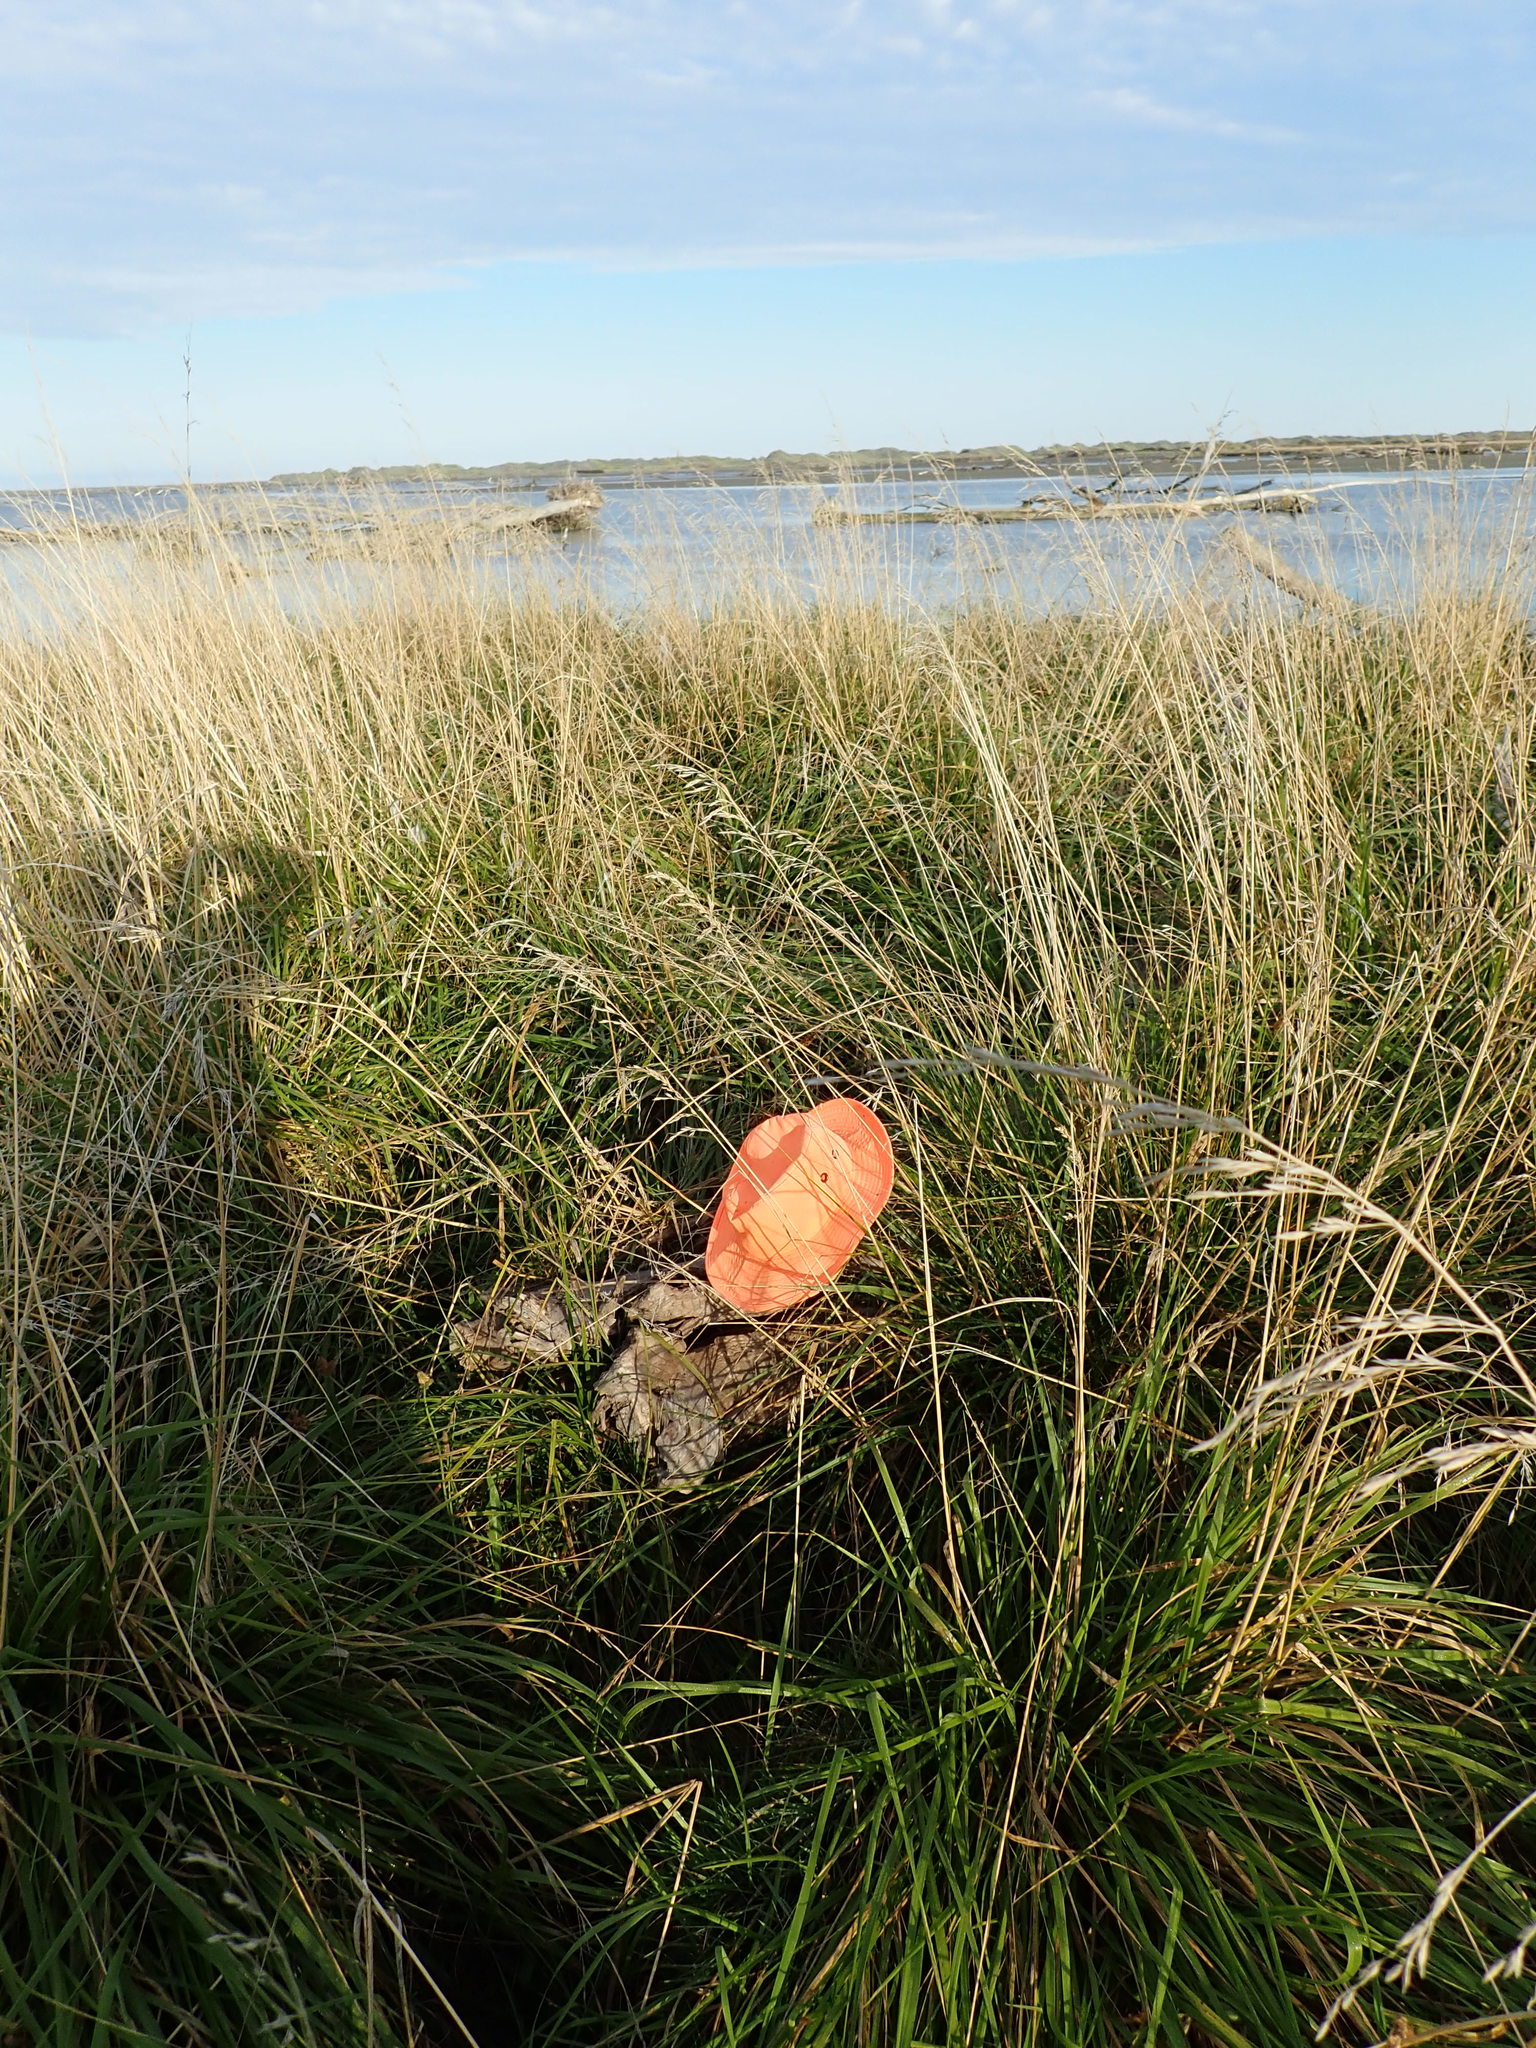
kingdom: Plantae
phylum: Tracheophyta
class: Liliopsida
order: Poales
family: Cyperaceae
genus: Carex
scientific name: Carex otrubae
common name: False fox-sedge
